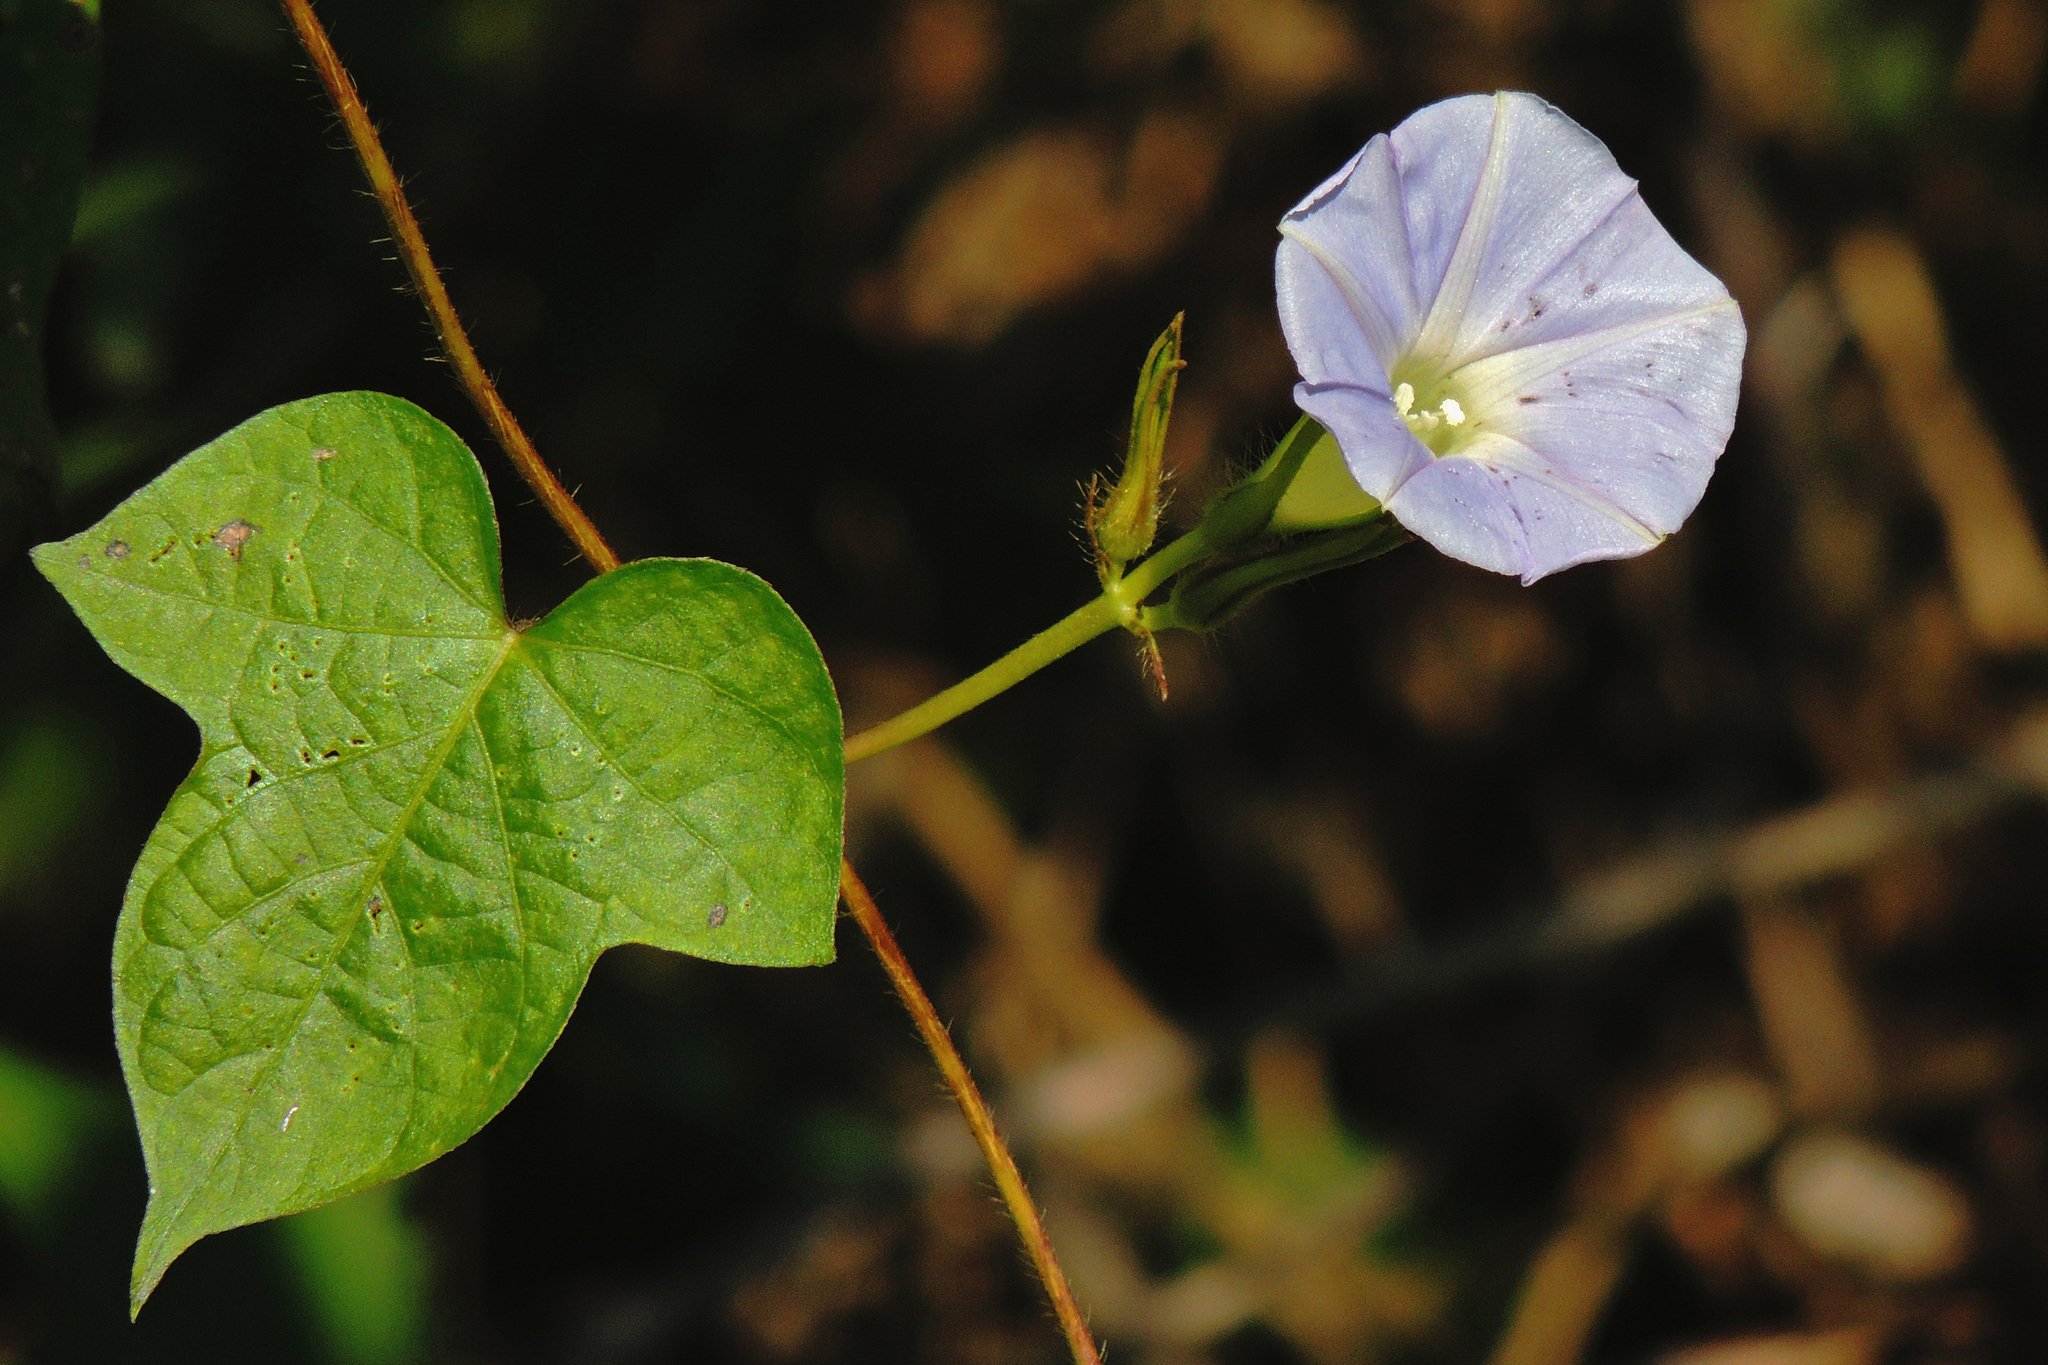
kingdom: Plantae
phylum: Tracheophyta
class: Magnoliopsida
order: Solanales
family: Convolvulaceae
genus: Ipomoea
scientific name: Ipomoea nil
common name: Japanese morning-glory
